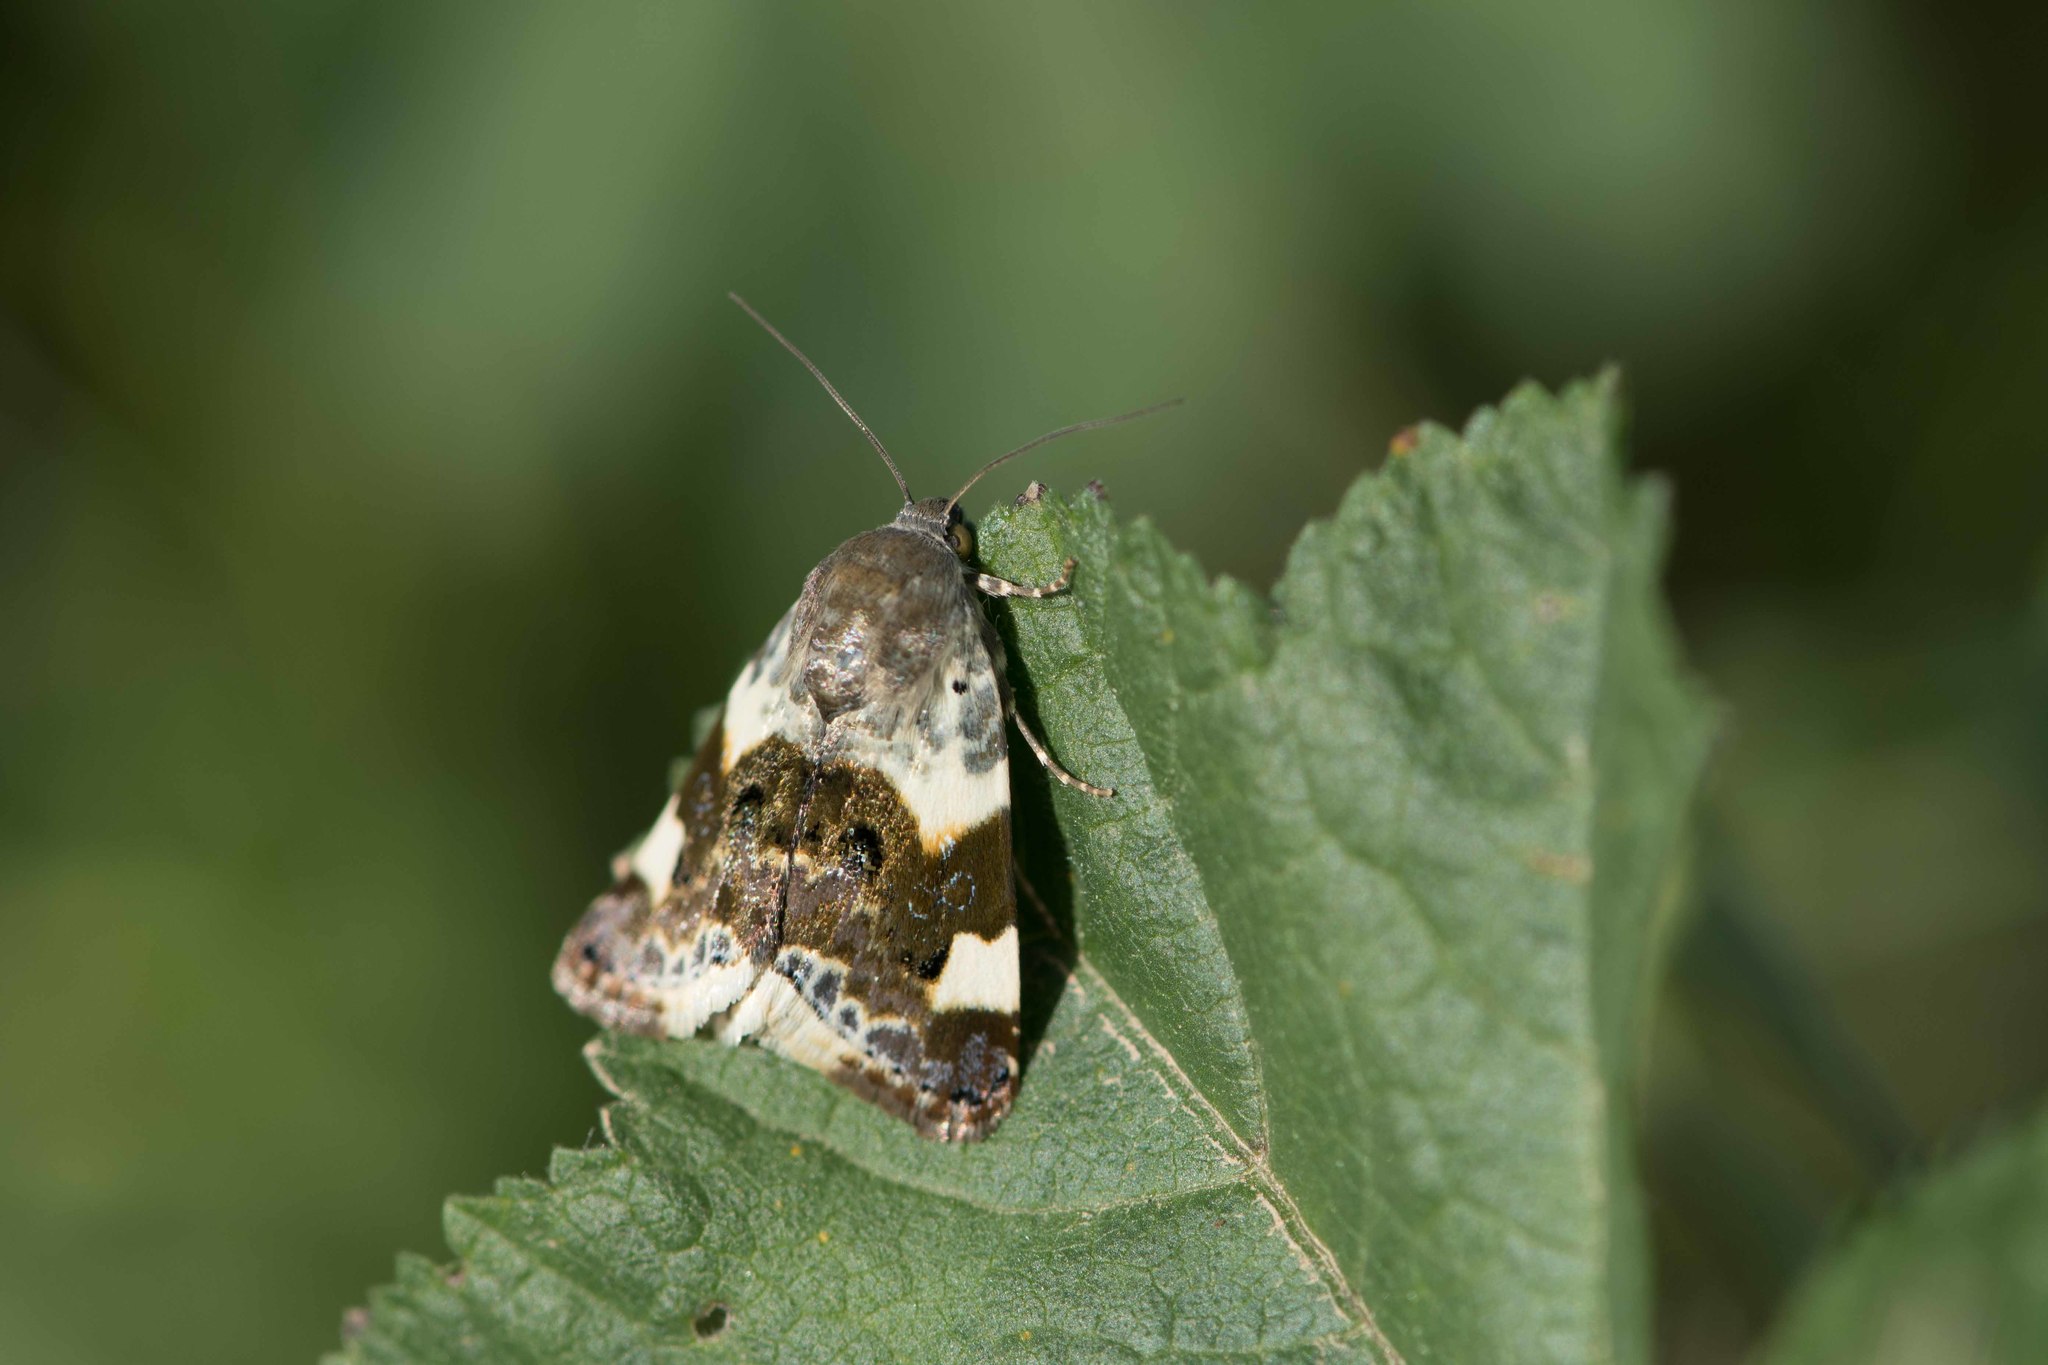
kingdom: Animalia
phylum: Arthropoda
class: Insecta
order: Lepidoptera
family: Noctuidae
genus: Acontia
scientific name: Acontia lucida
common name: Pale shoulder
